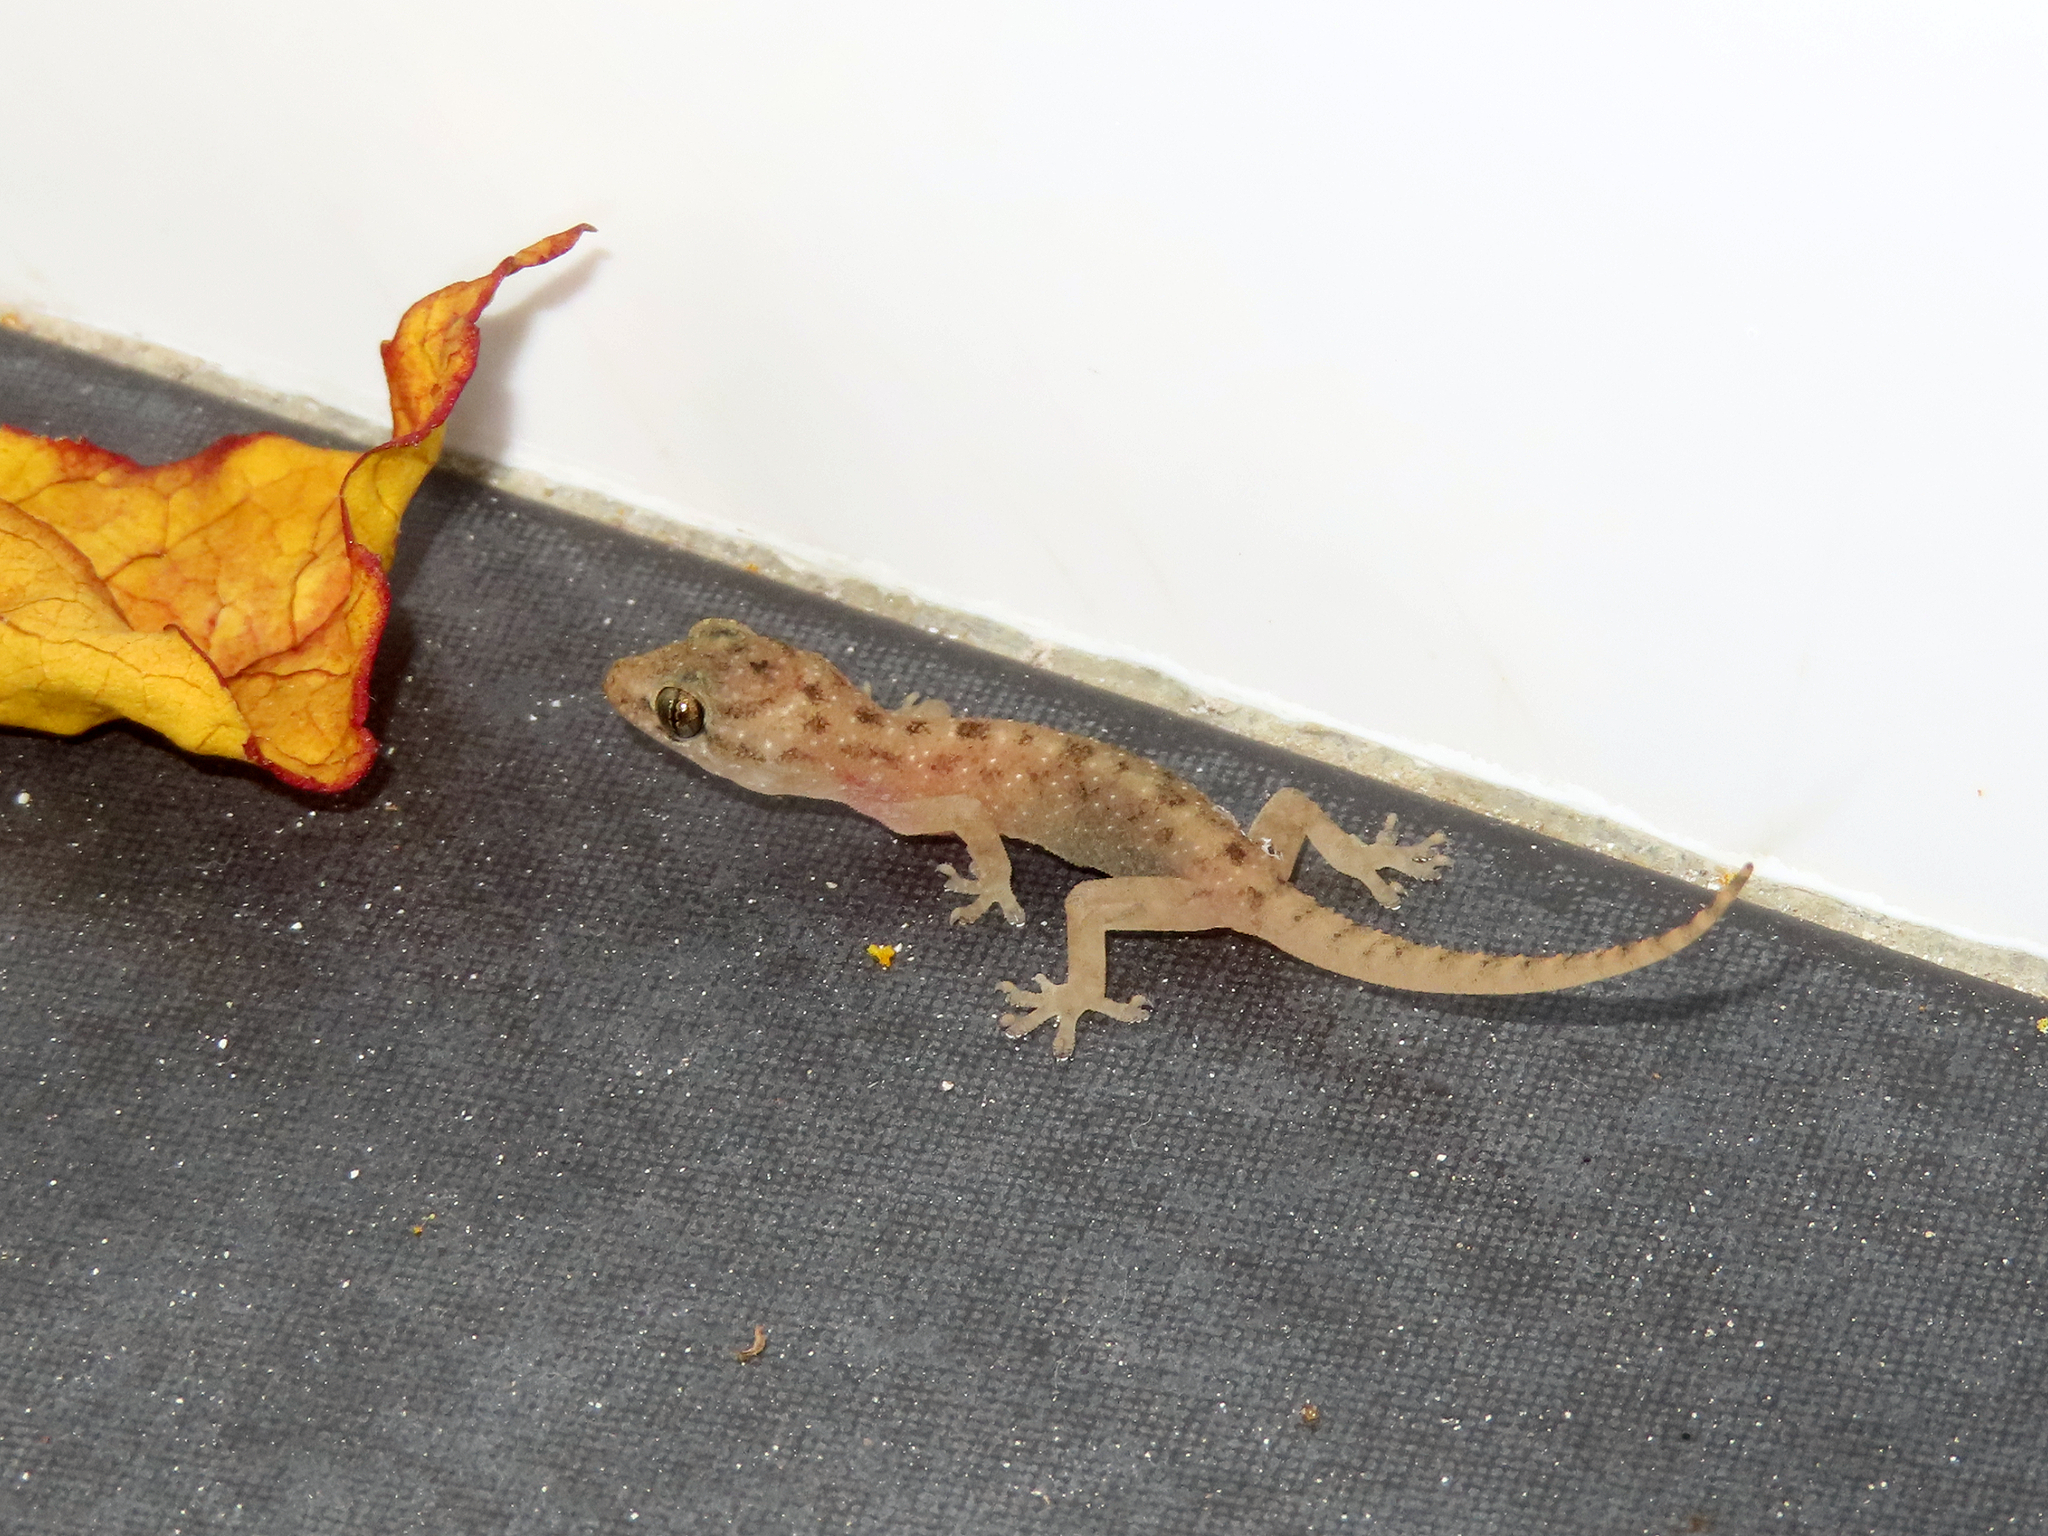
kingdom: Animalia
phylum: Chordata
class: Squamata
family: Gekkonidae
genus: Hemidactylus
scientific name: Hemidactylus frenatus
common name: Common house gecko
